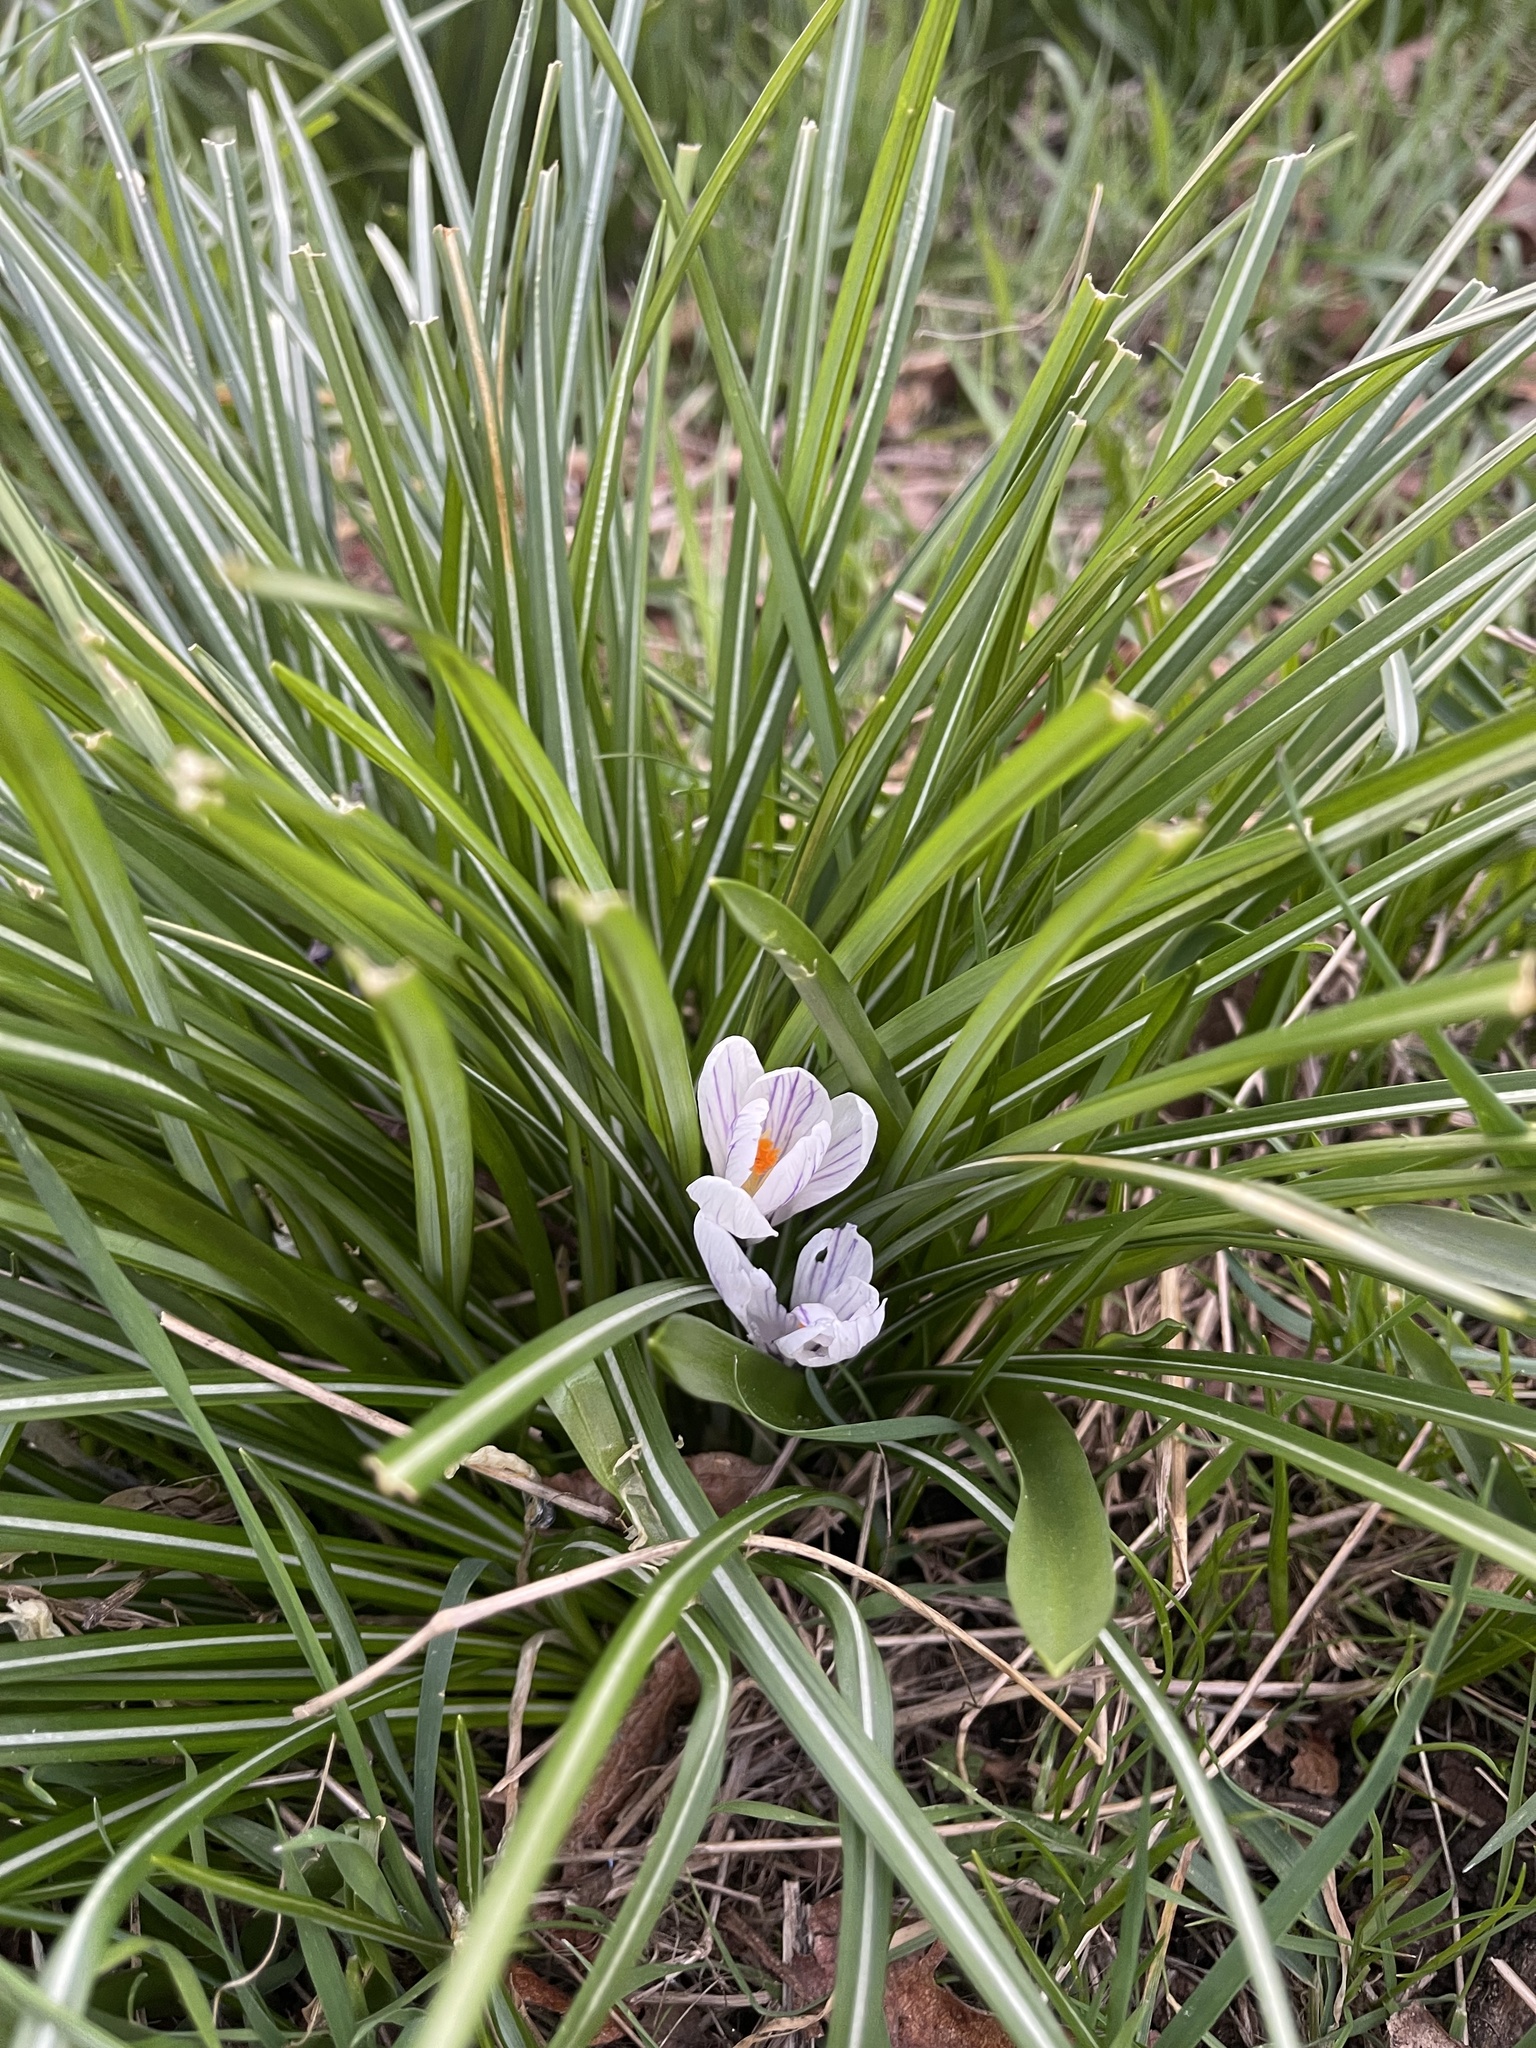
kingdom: Plantae
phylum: Tracheophyta
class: Liliopsida
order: Asparagales
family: Iridaceae
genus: Crocus
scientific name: Crocus vernus
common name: Spring crocus
